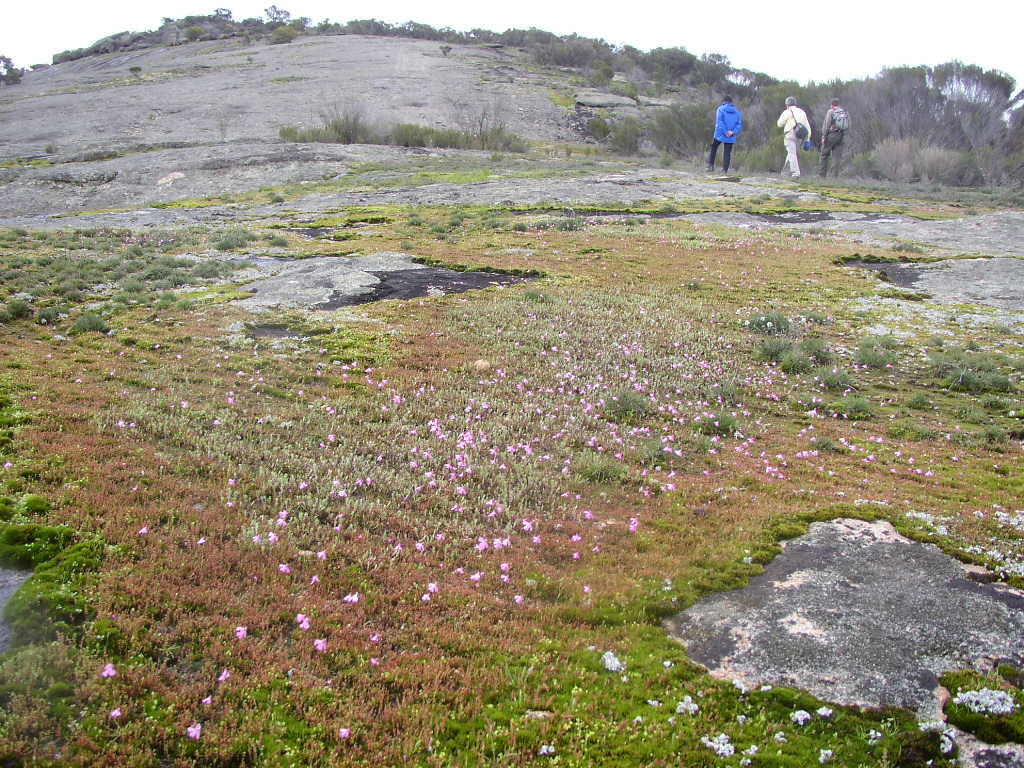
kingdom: Plantae
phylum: Tracheophyta
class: Magnoliopsida
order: Caryophyllales
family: Droseraceae
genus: Drosera
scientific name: Drosera bulbosa
